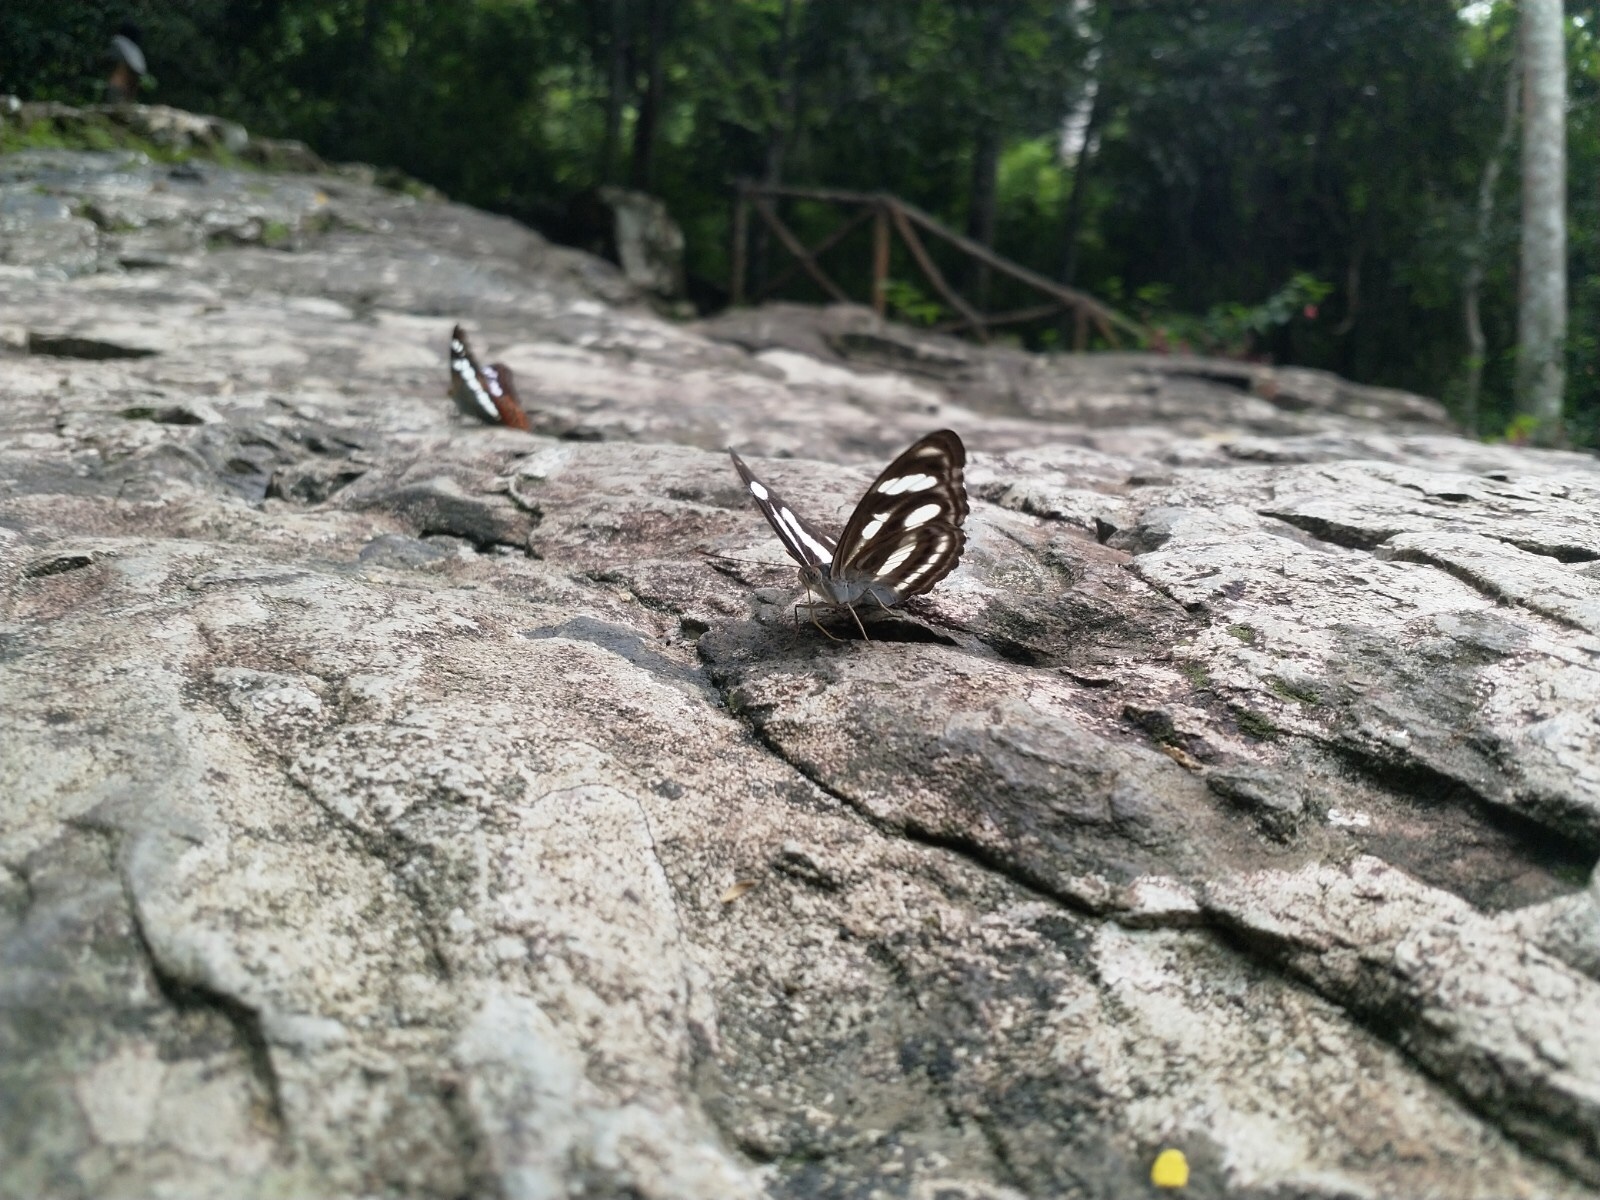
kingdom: Animalia
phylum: Arthropoda
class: Insecta
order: Lepidoptera
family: Nymphalidae
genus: Pantoporia
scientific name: Pantoporia cama
